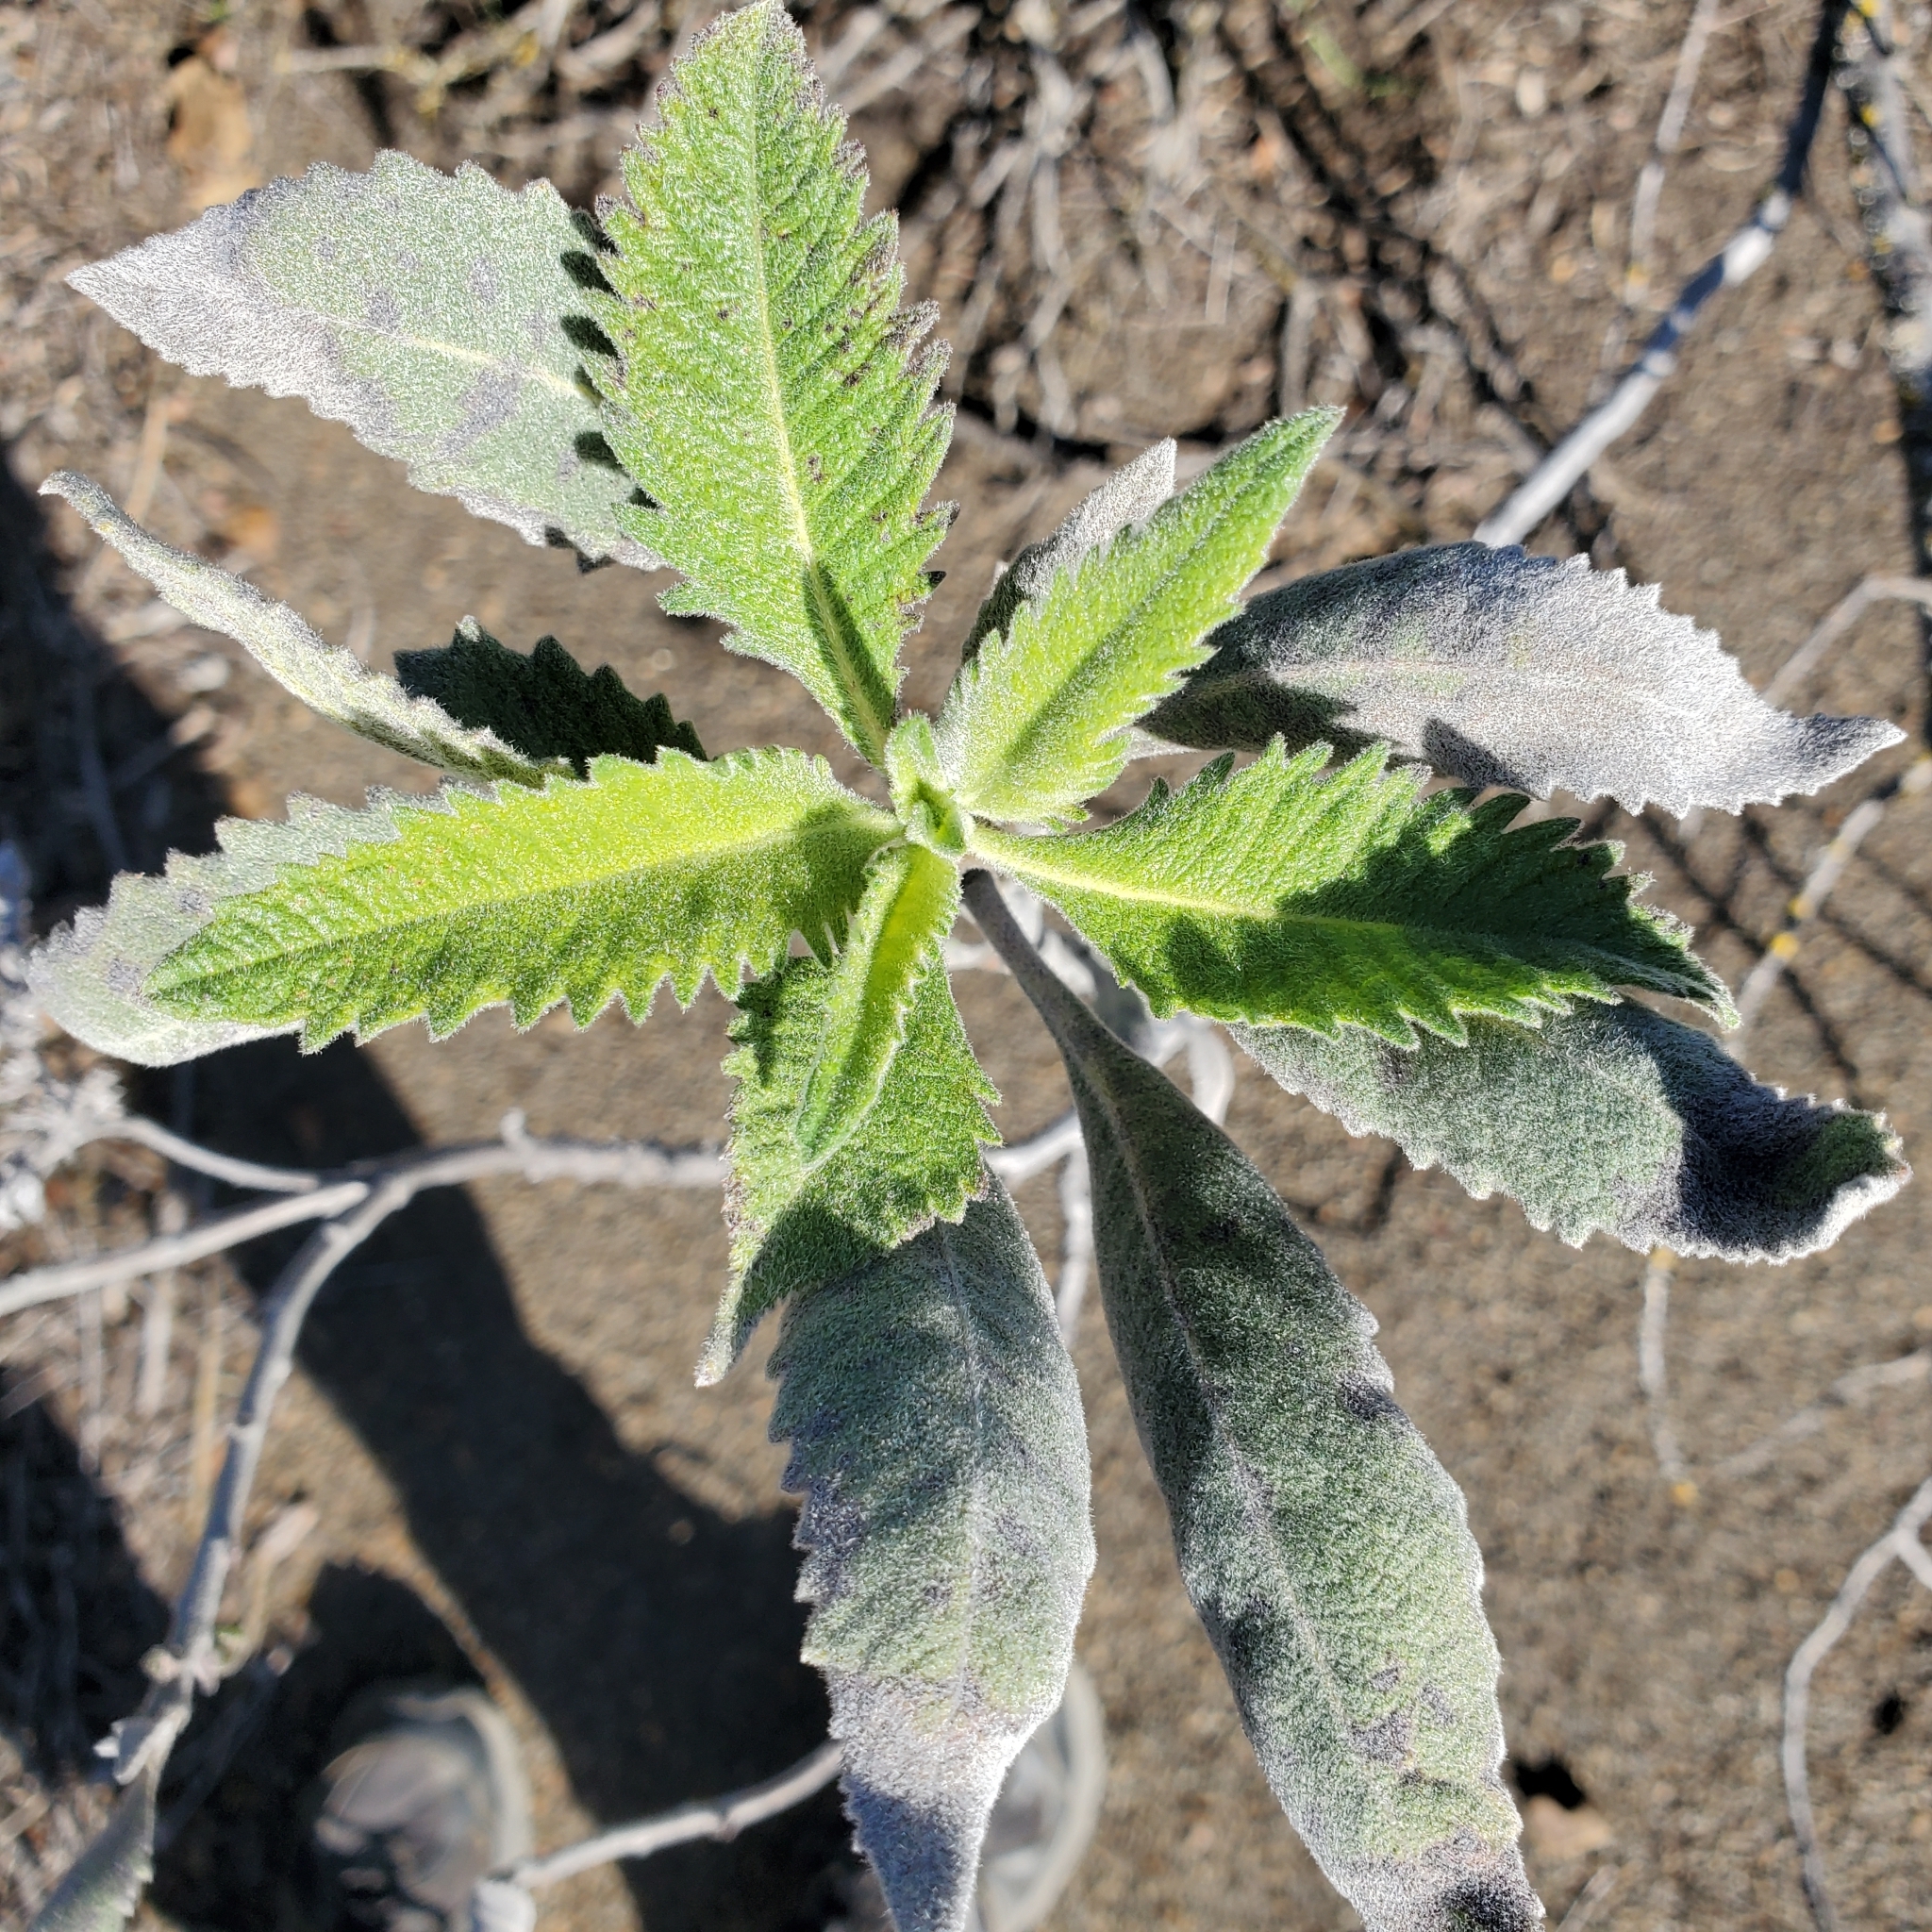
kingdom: Plantae
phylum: Tracheophyta
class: Magnoliopsida
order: Boraginales
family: Namaceae
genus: Eriodictyon
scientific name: Eriodictyon crassifolium
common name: Thick-leaf yerba-santa
